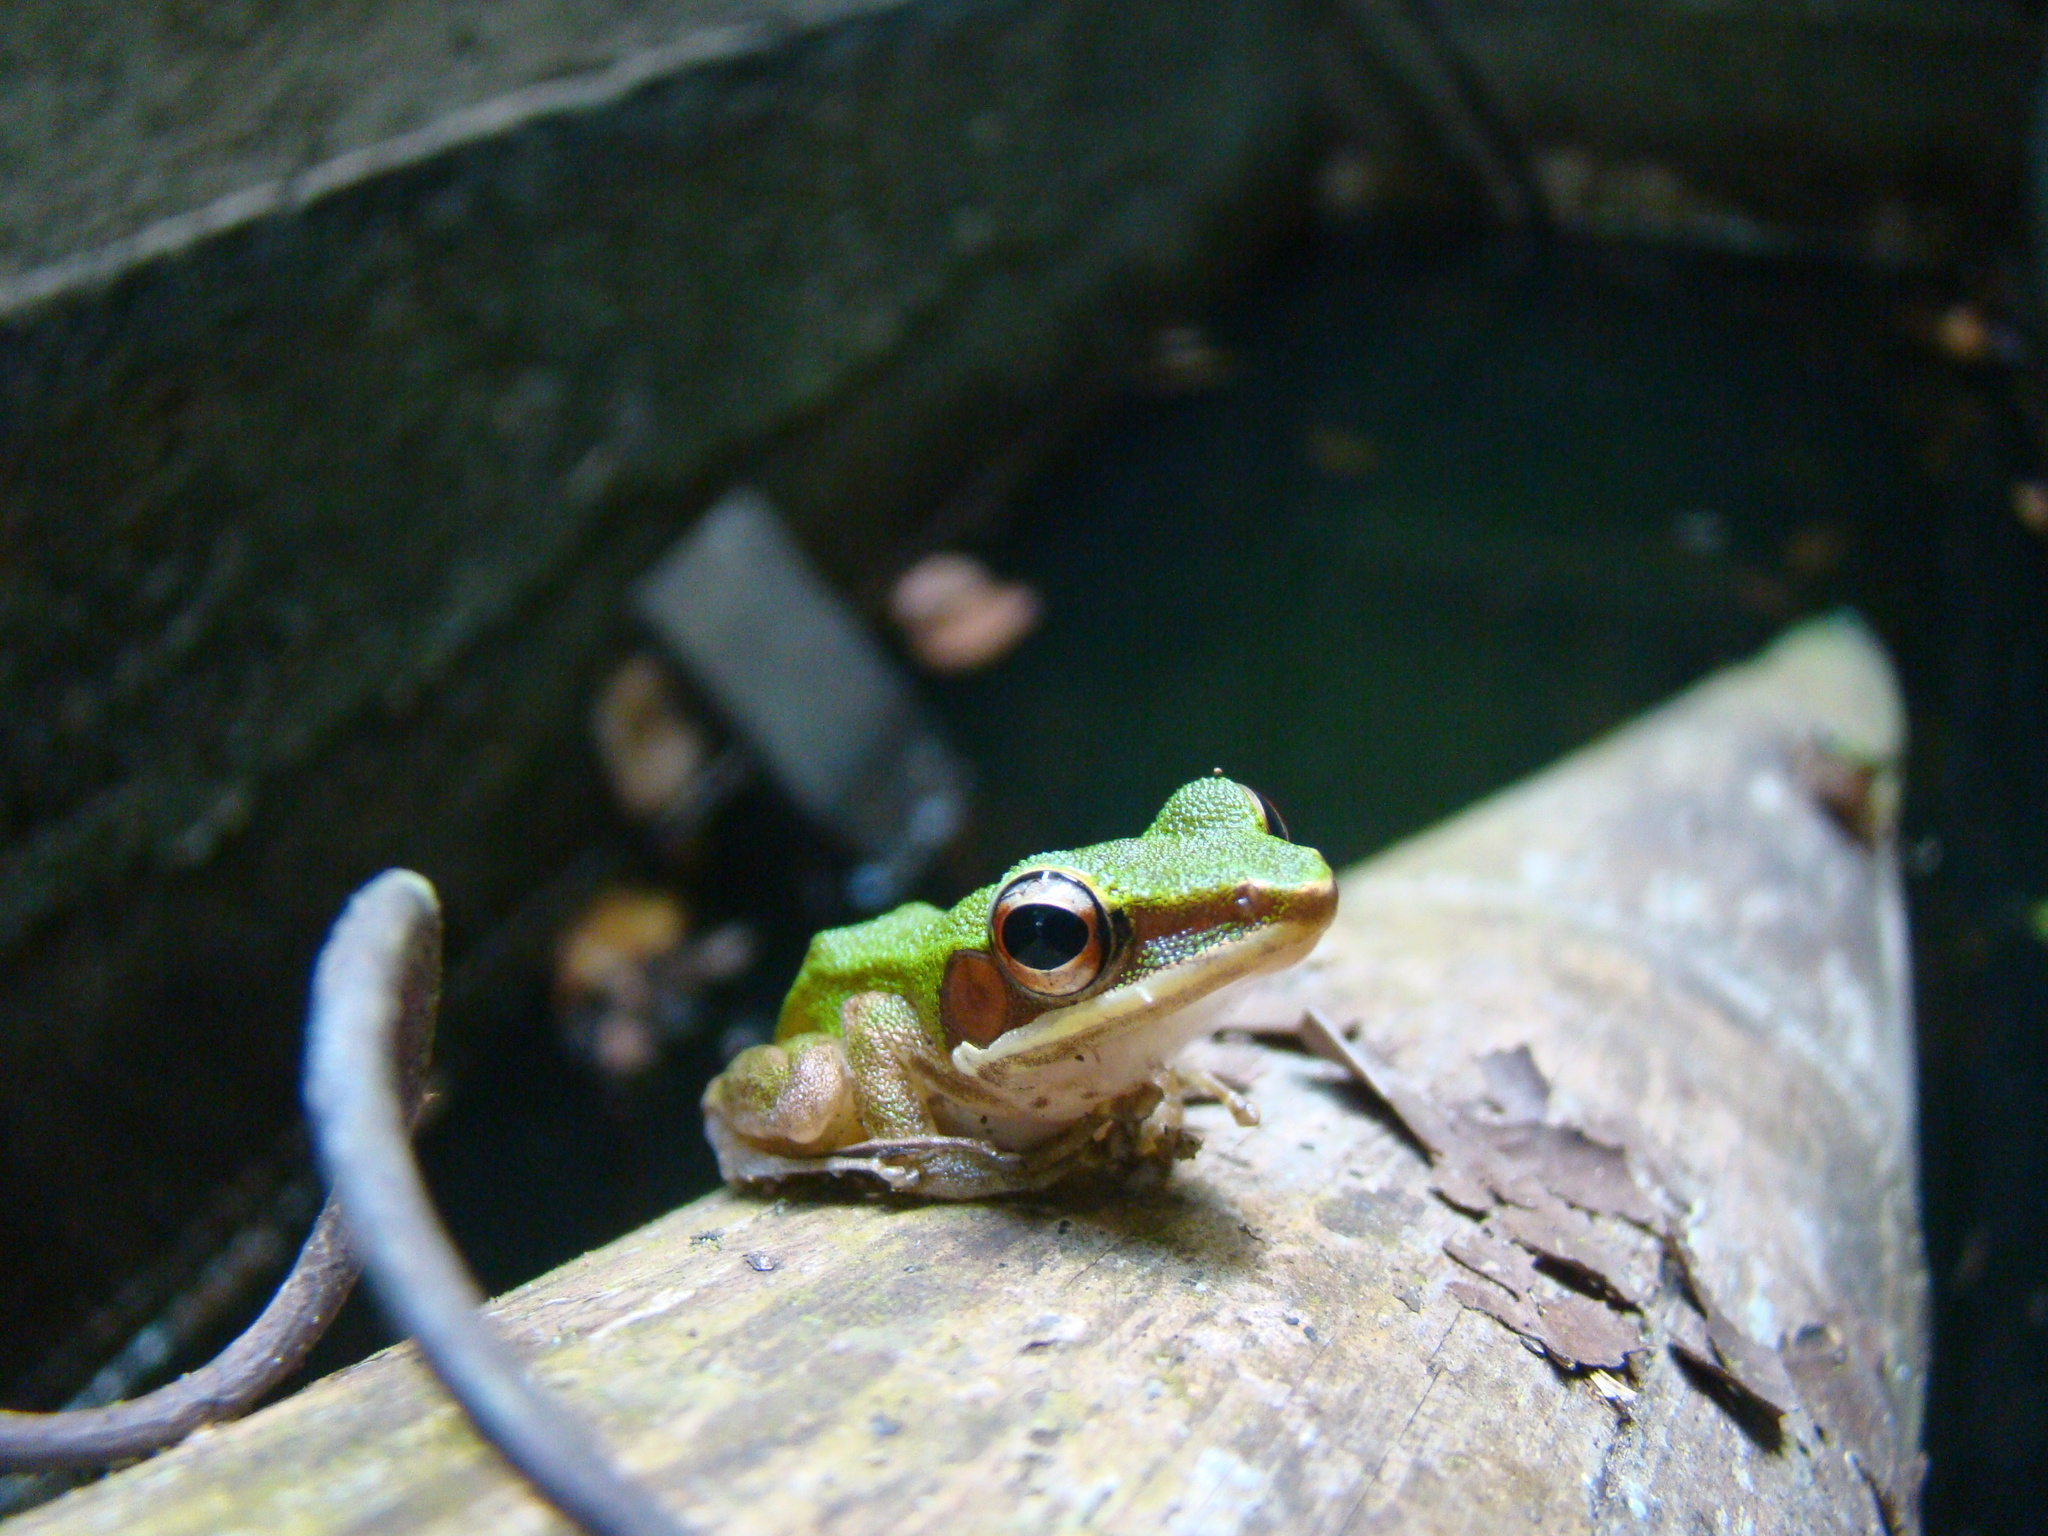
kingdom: Animalia
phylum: Chordata
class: Amphibia
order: Anura
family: Ranidae
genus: Chalcorana
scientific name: Chalcorana eschatia
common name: Tenasserim white-lipped frog
